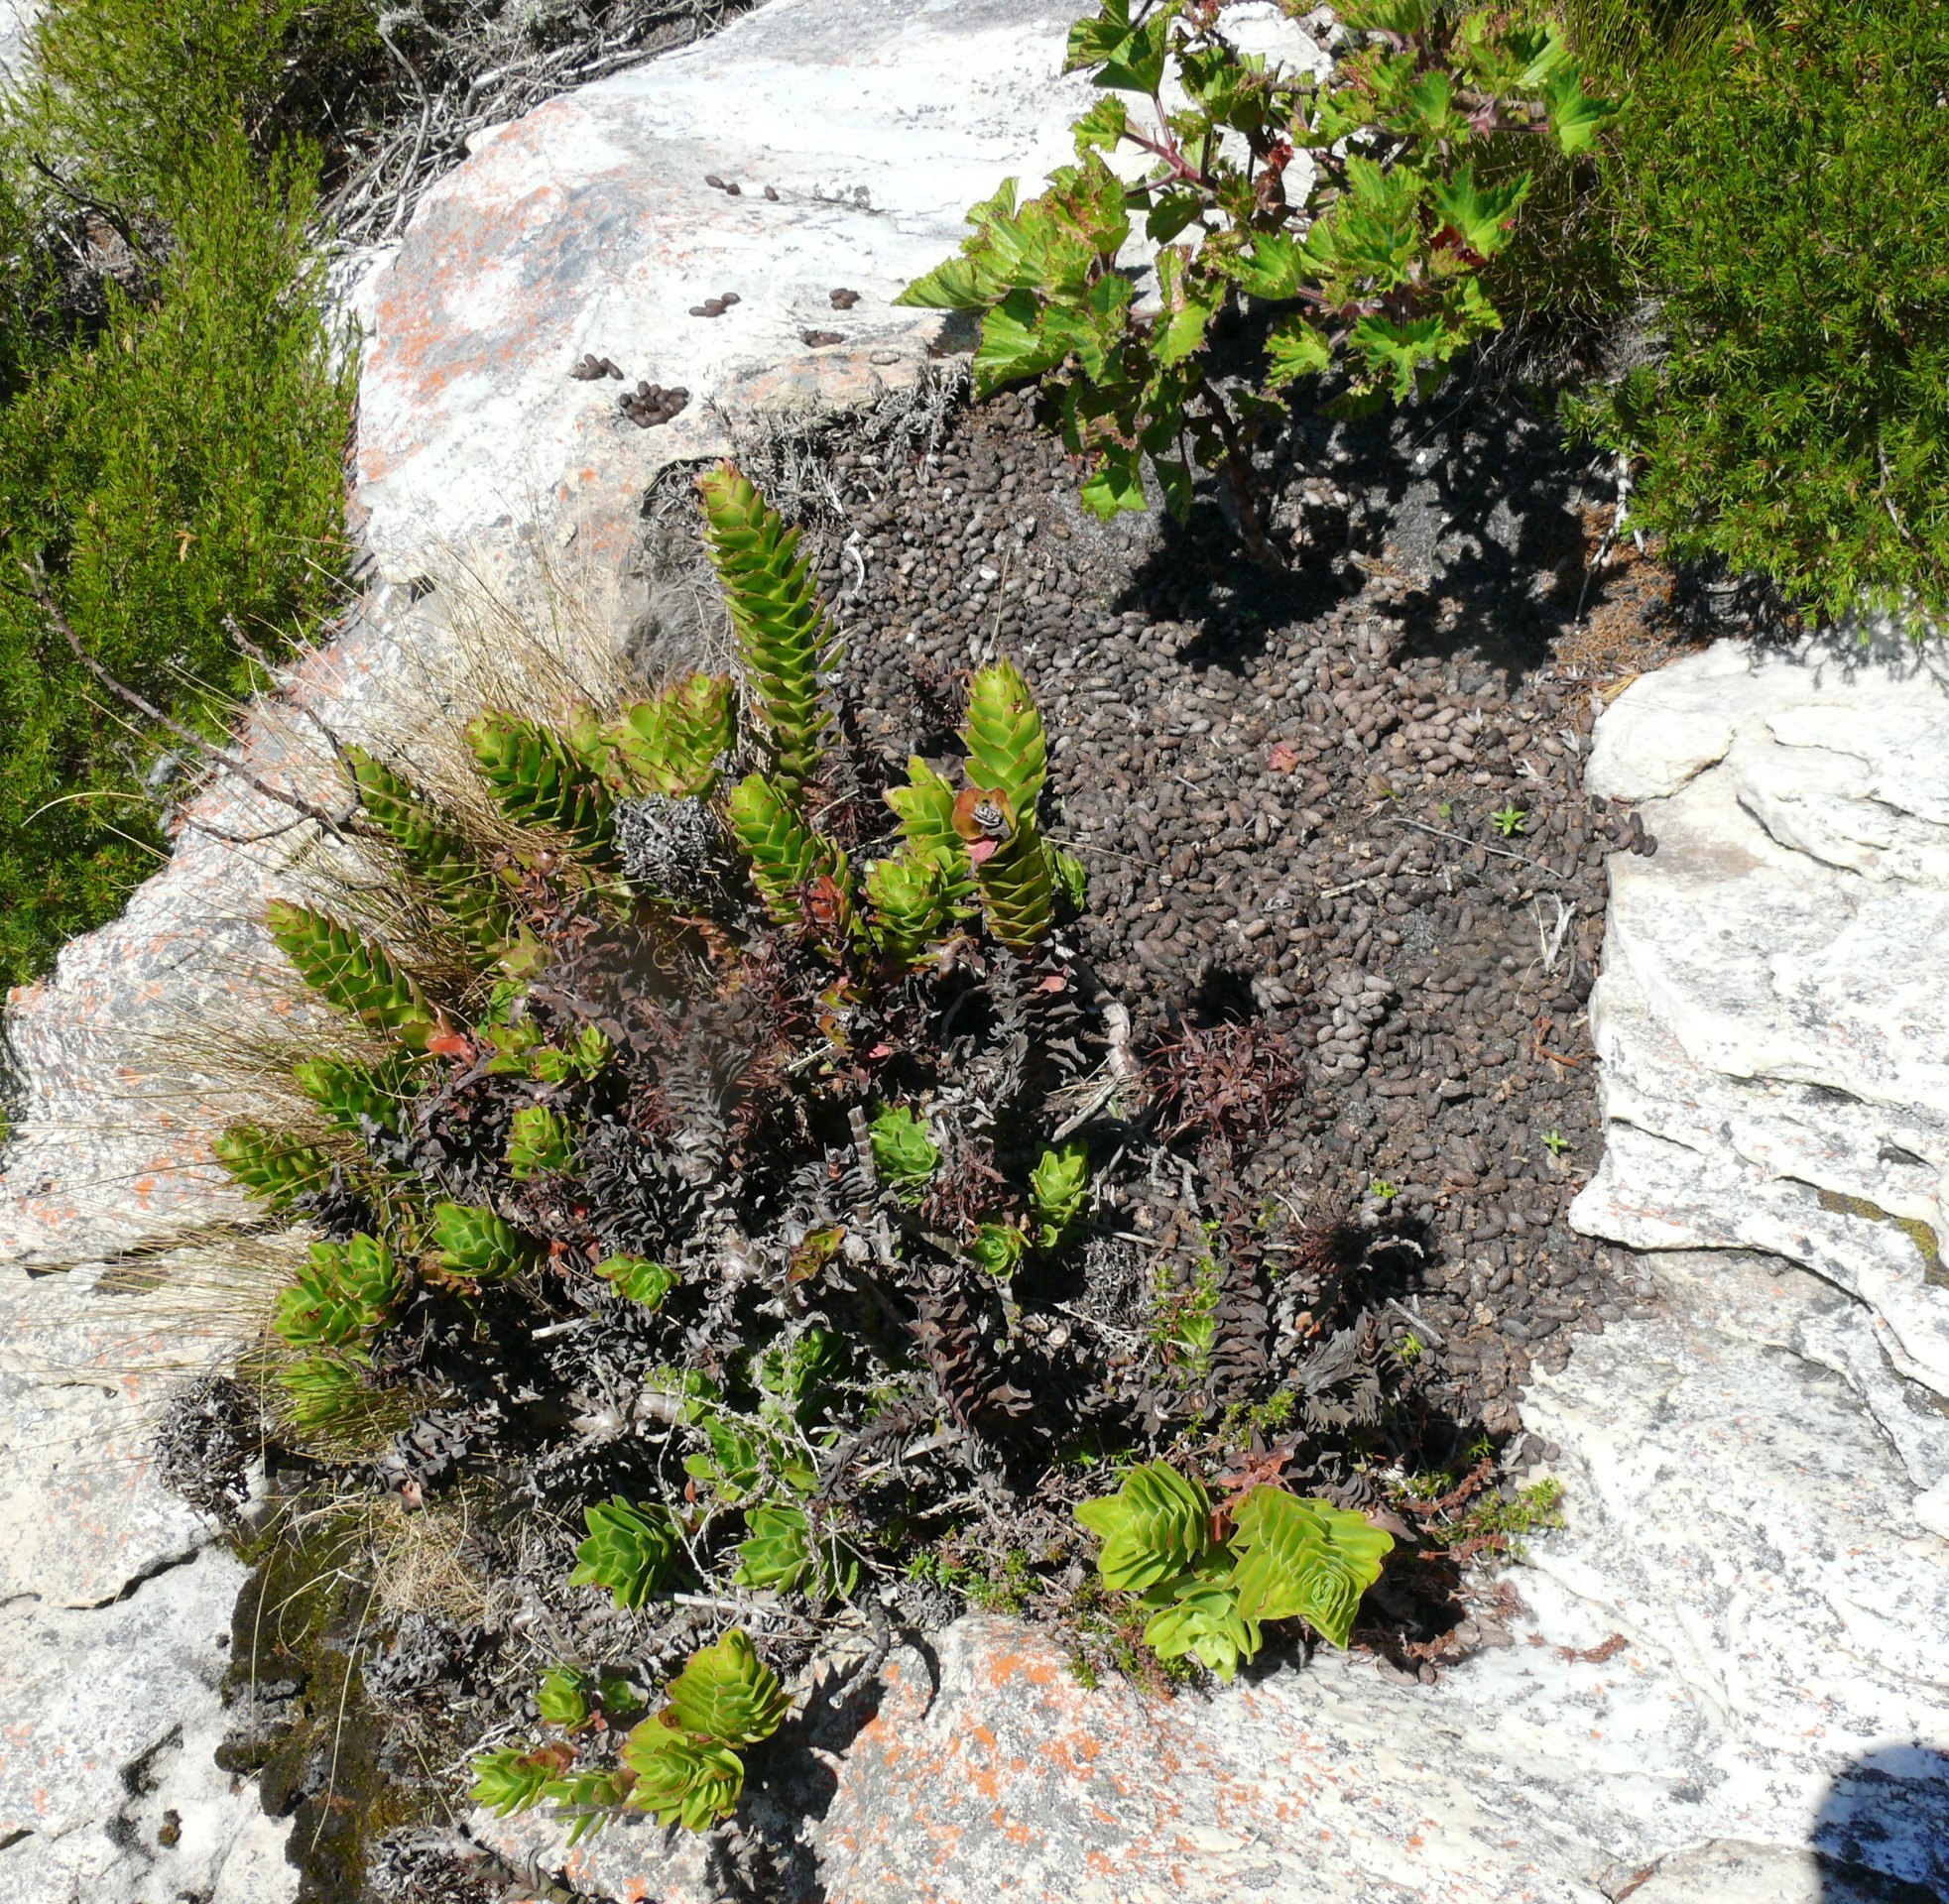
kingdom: Animalia
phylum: Chordata
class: Mammalia
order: Artiodactyla
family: Bovidae
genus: Oreotragus
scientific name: Oreotragus oreotragus
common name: Klipspringer
